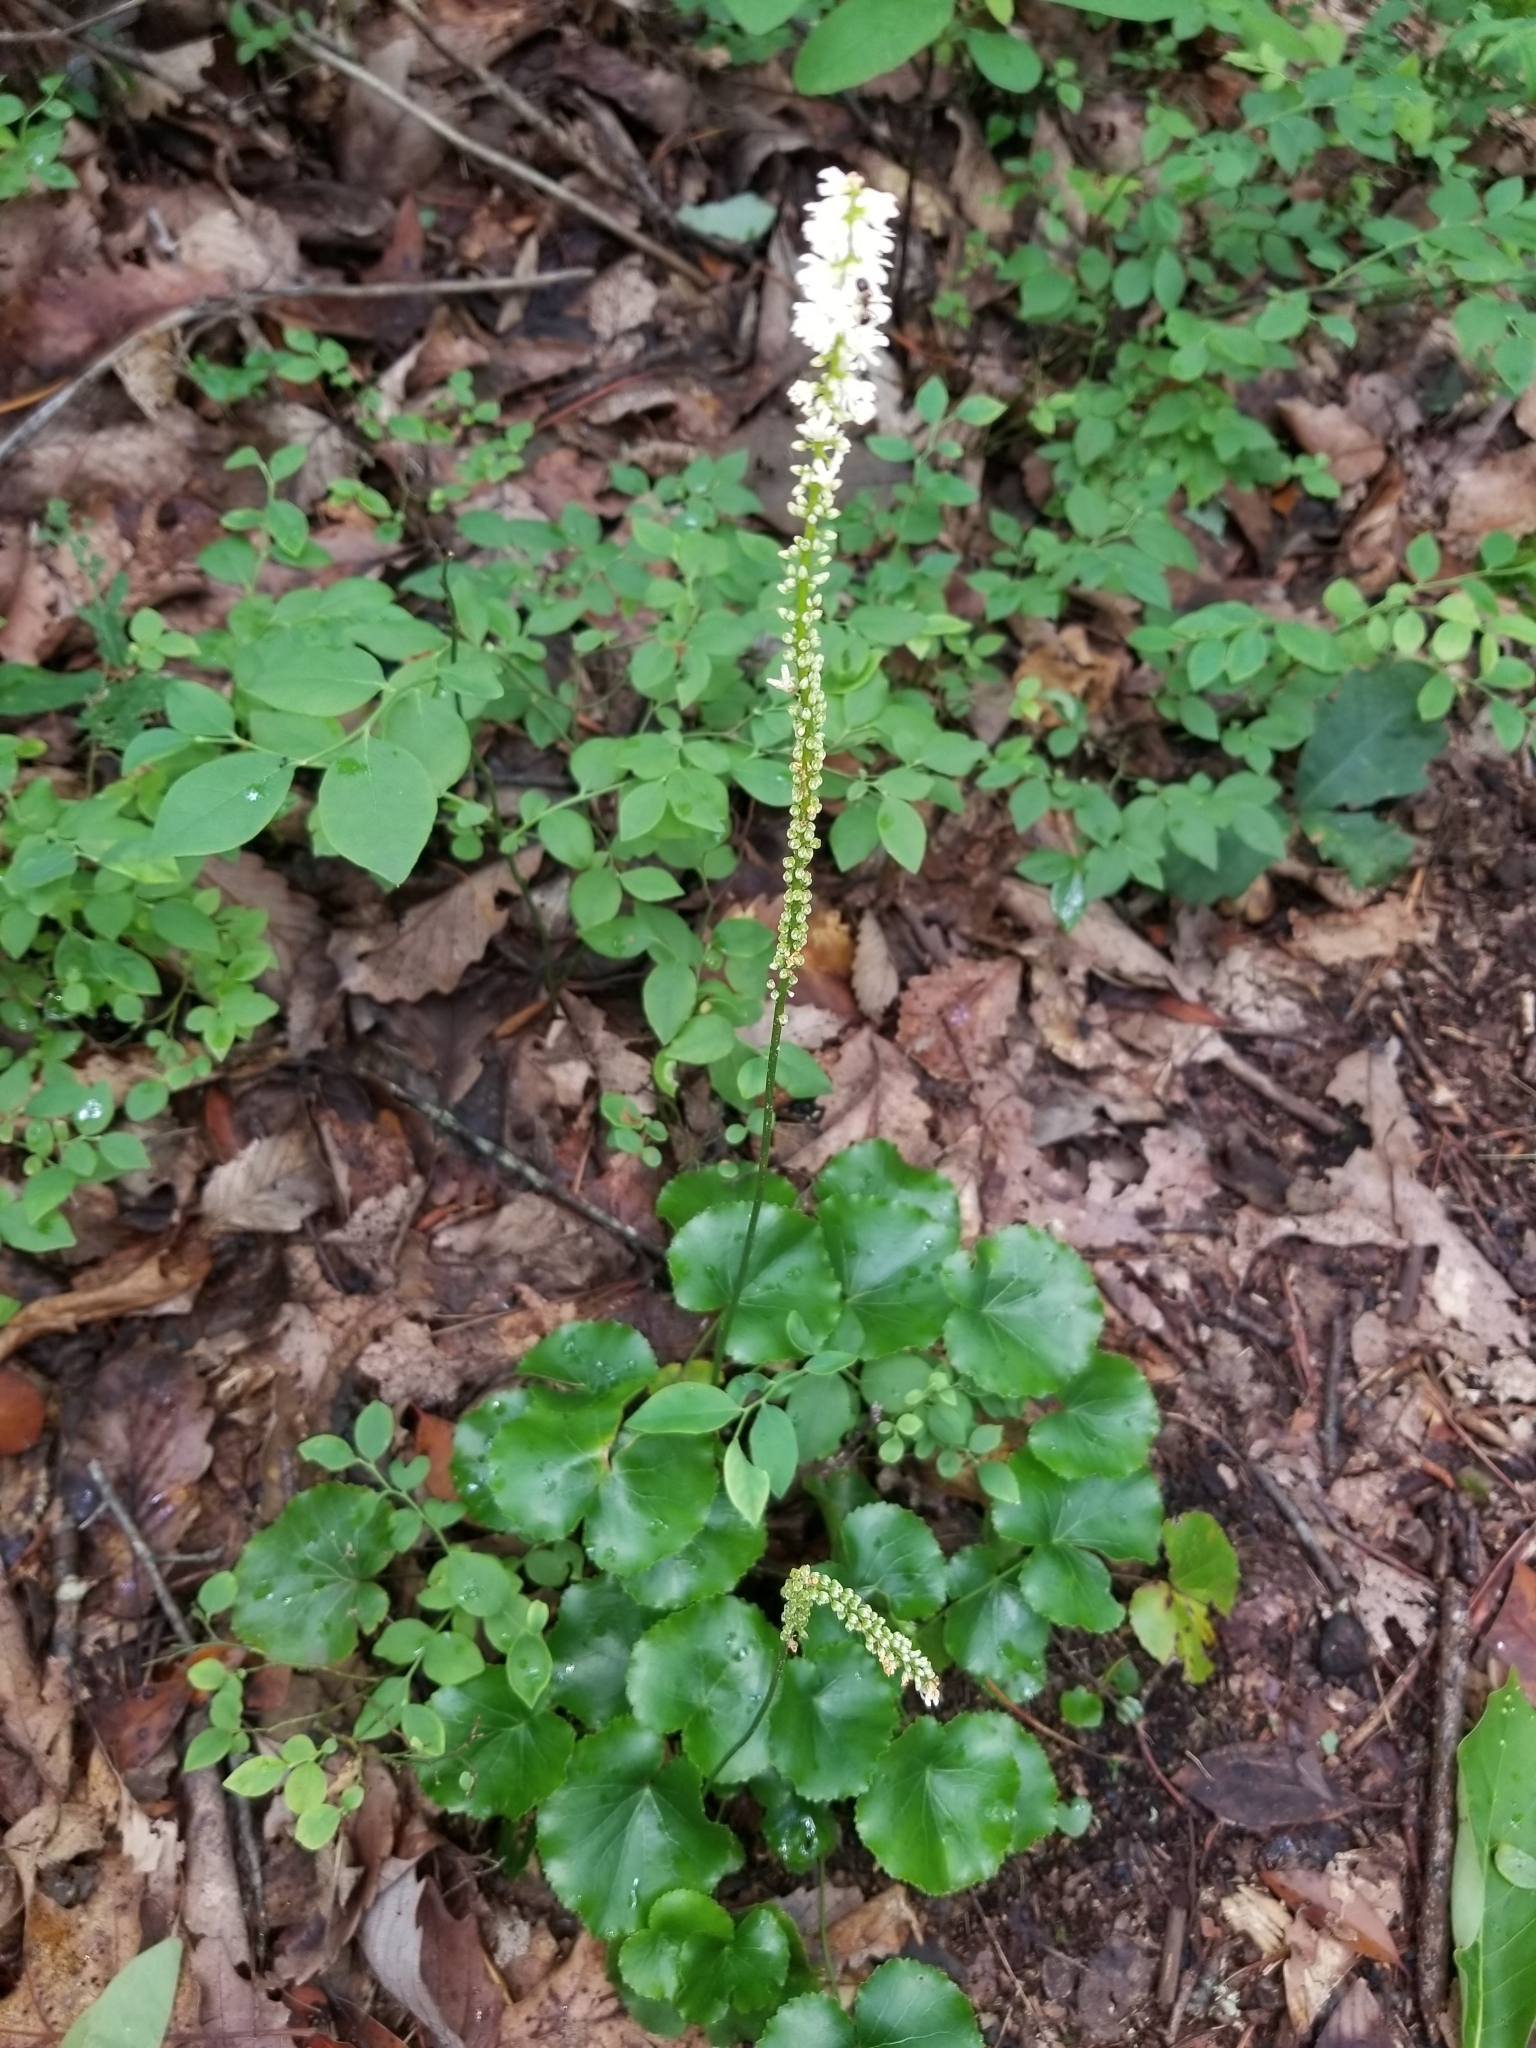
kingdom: Plantae
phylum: Tracheophyta
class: Magnoliopsida
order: Ericales
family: Diapensiaceae
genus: Galax
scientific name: Galax urceolata
